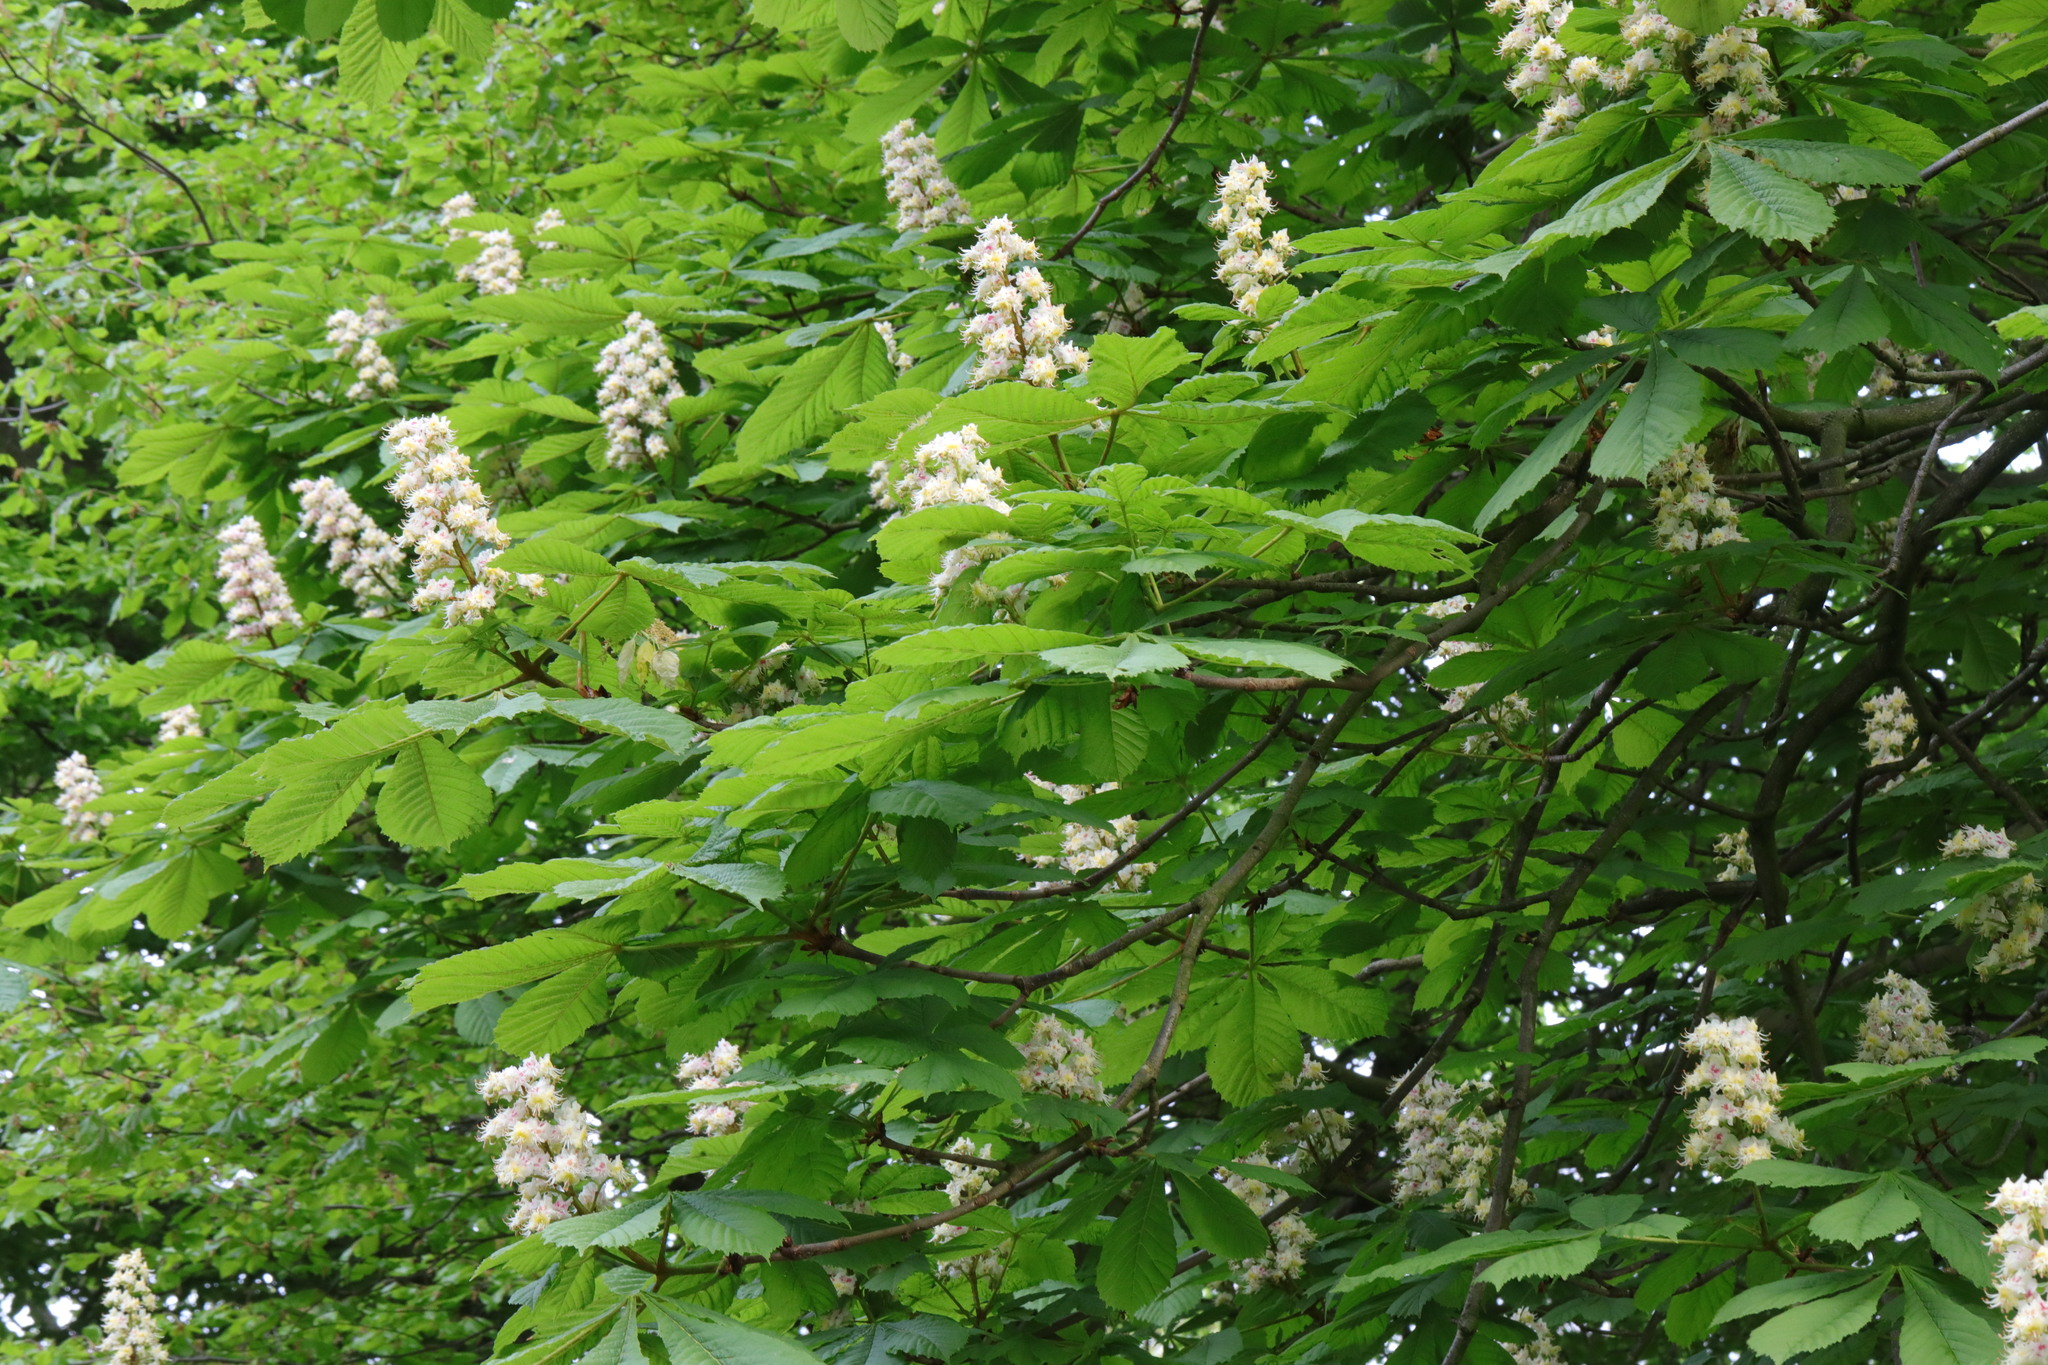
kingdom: Plantae
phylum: Tracheophyta
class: Magnoliopsida
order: Sapindales
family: Sapindaceae
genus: Aesculus
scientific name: Aesculus hippocastanum
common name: Horse-chestnut
